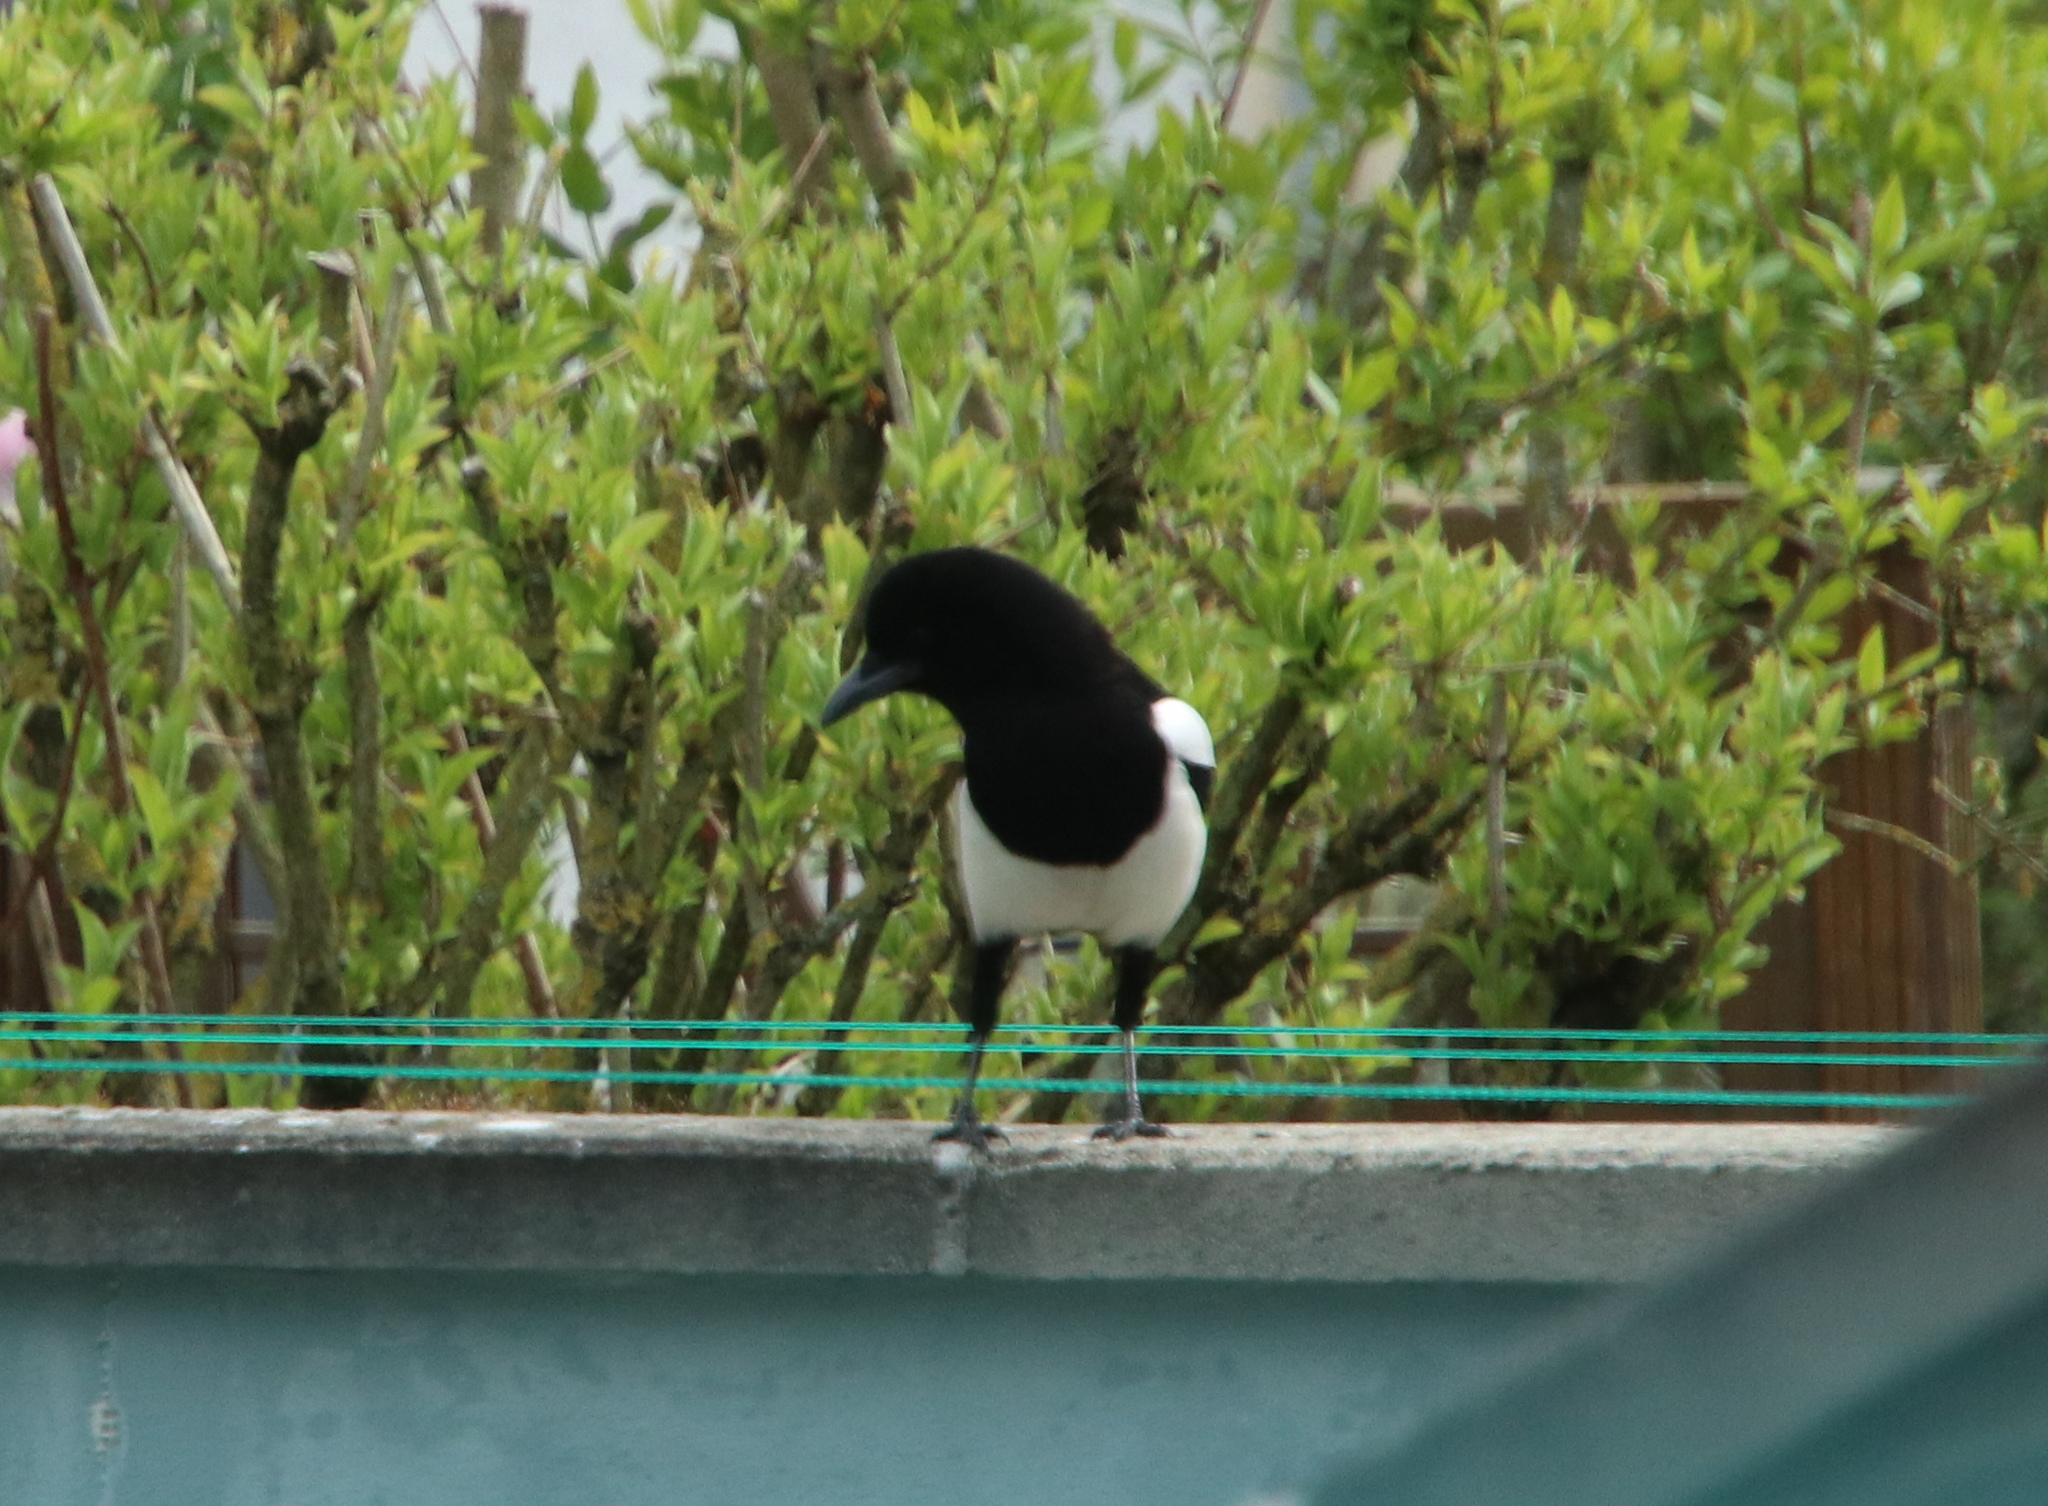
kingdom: Animalia
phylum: Chordata
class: Aves
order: Passeriformes
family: Corvidae
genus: Pica
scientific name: Pica pica
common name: Eurasian magpie
